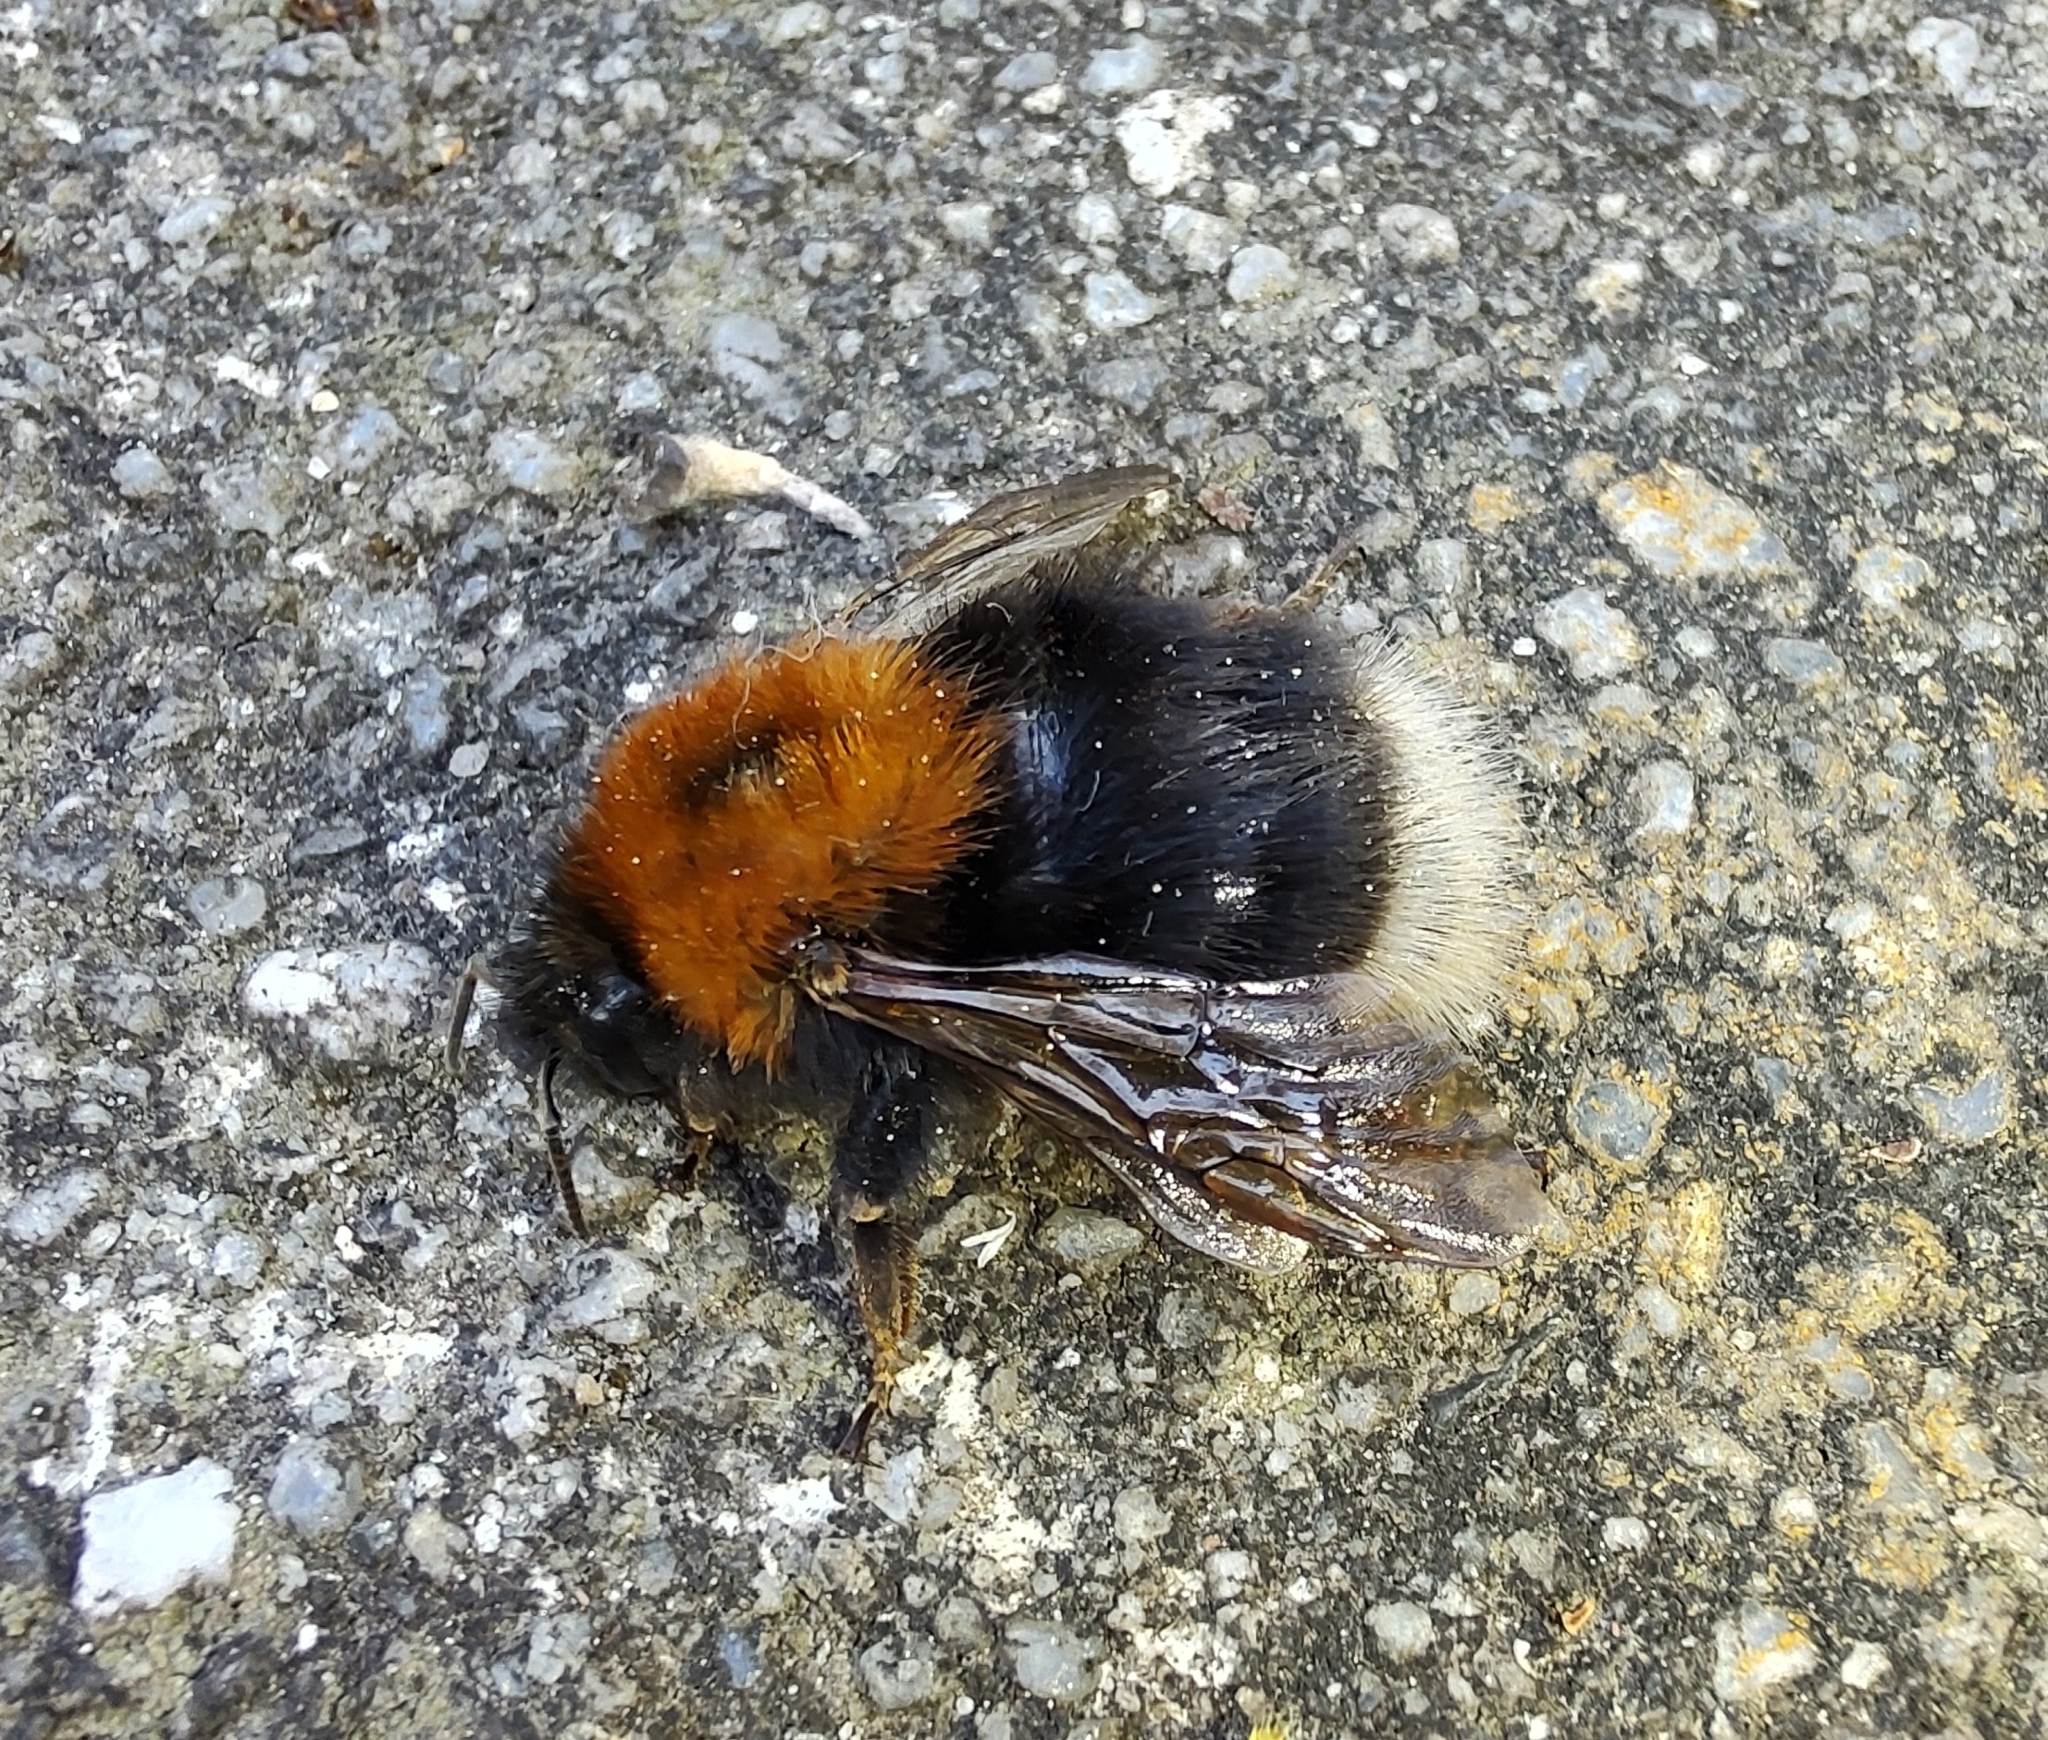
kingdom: Animalia
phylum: Arthropoda
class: Insecta
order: Hymenoptera
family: Apidae
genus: Bombus
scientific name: Bombus hypnorum
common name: New garden bumblebee
